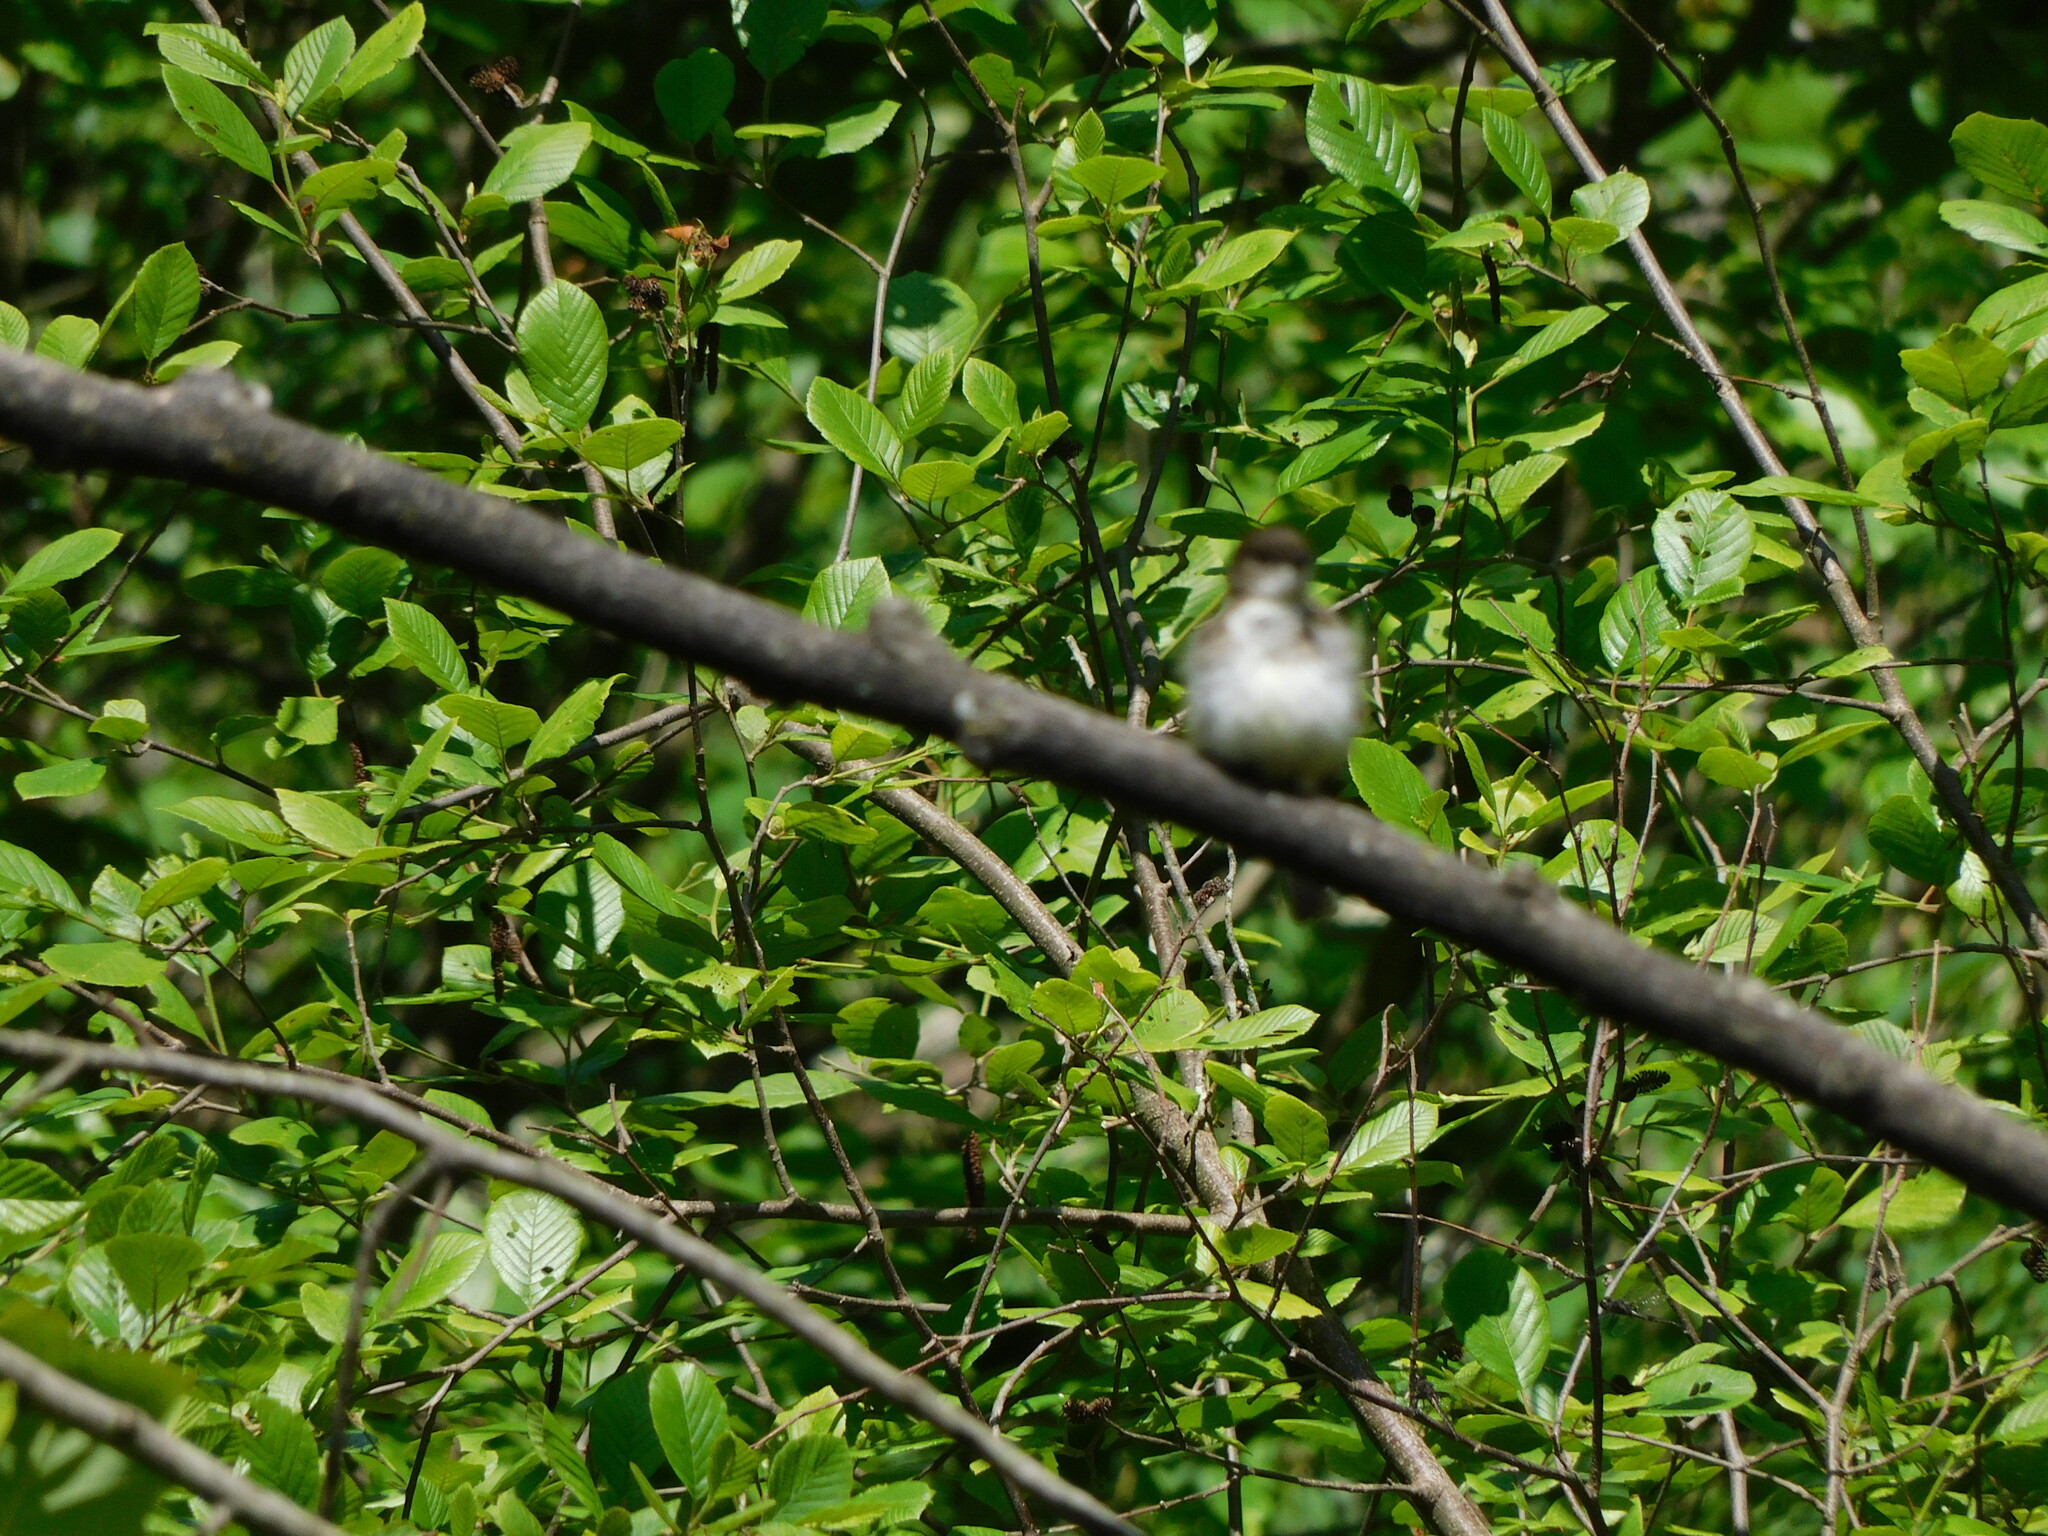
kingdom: Animalia
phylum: Chordata
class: Aves
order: Passeriformes
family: Tyrannidae
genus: Sayornis
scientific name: Sayornis phoebe
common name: Eastern phoebe
